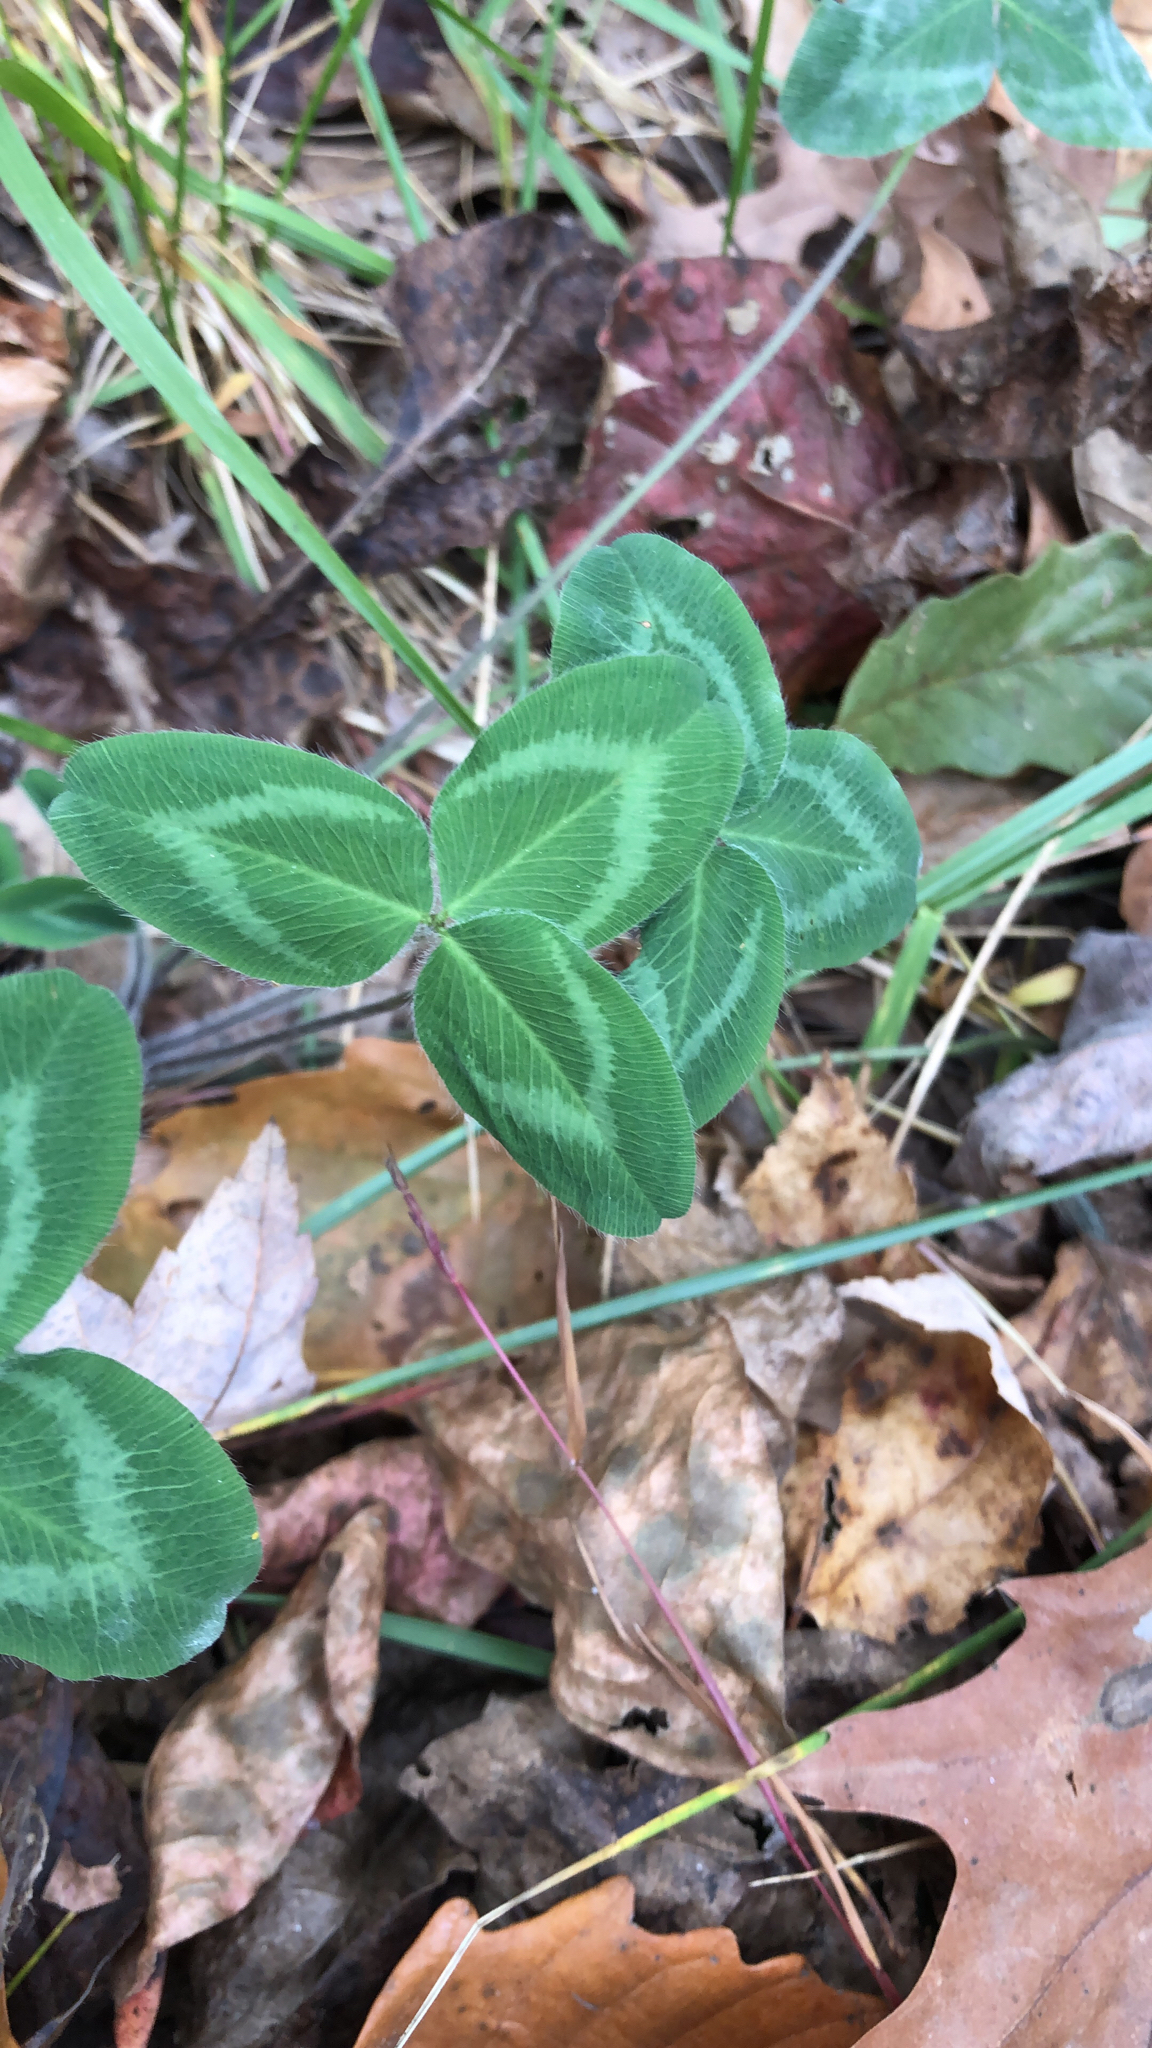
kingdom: Plantae
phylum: Tracheophyta
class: Magnoliopsida
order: Fabales
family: Fabaceae
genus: Trifolium
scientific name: Trifolium pratense
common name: Red clover
